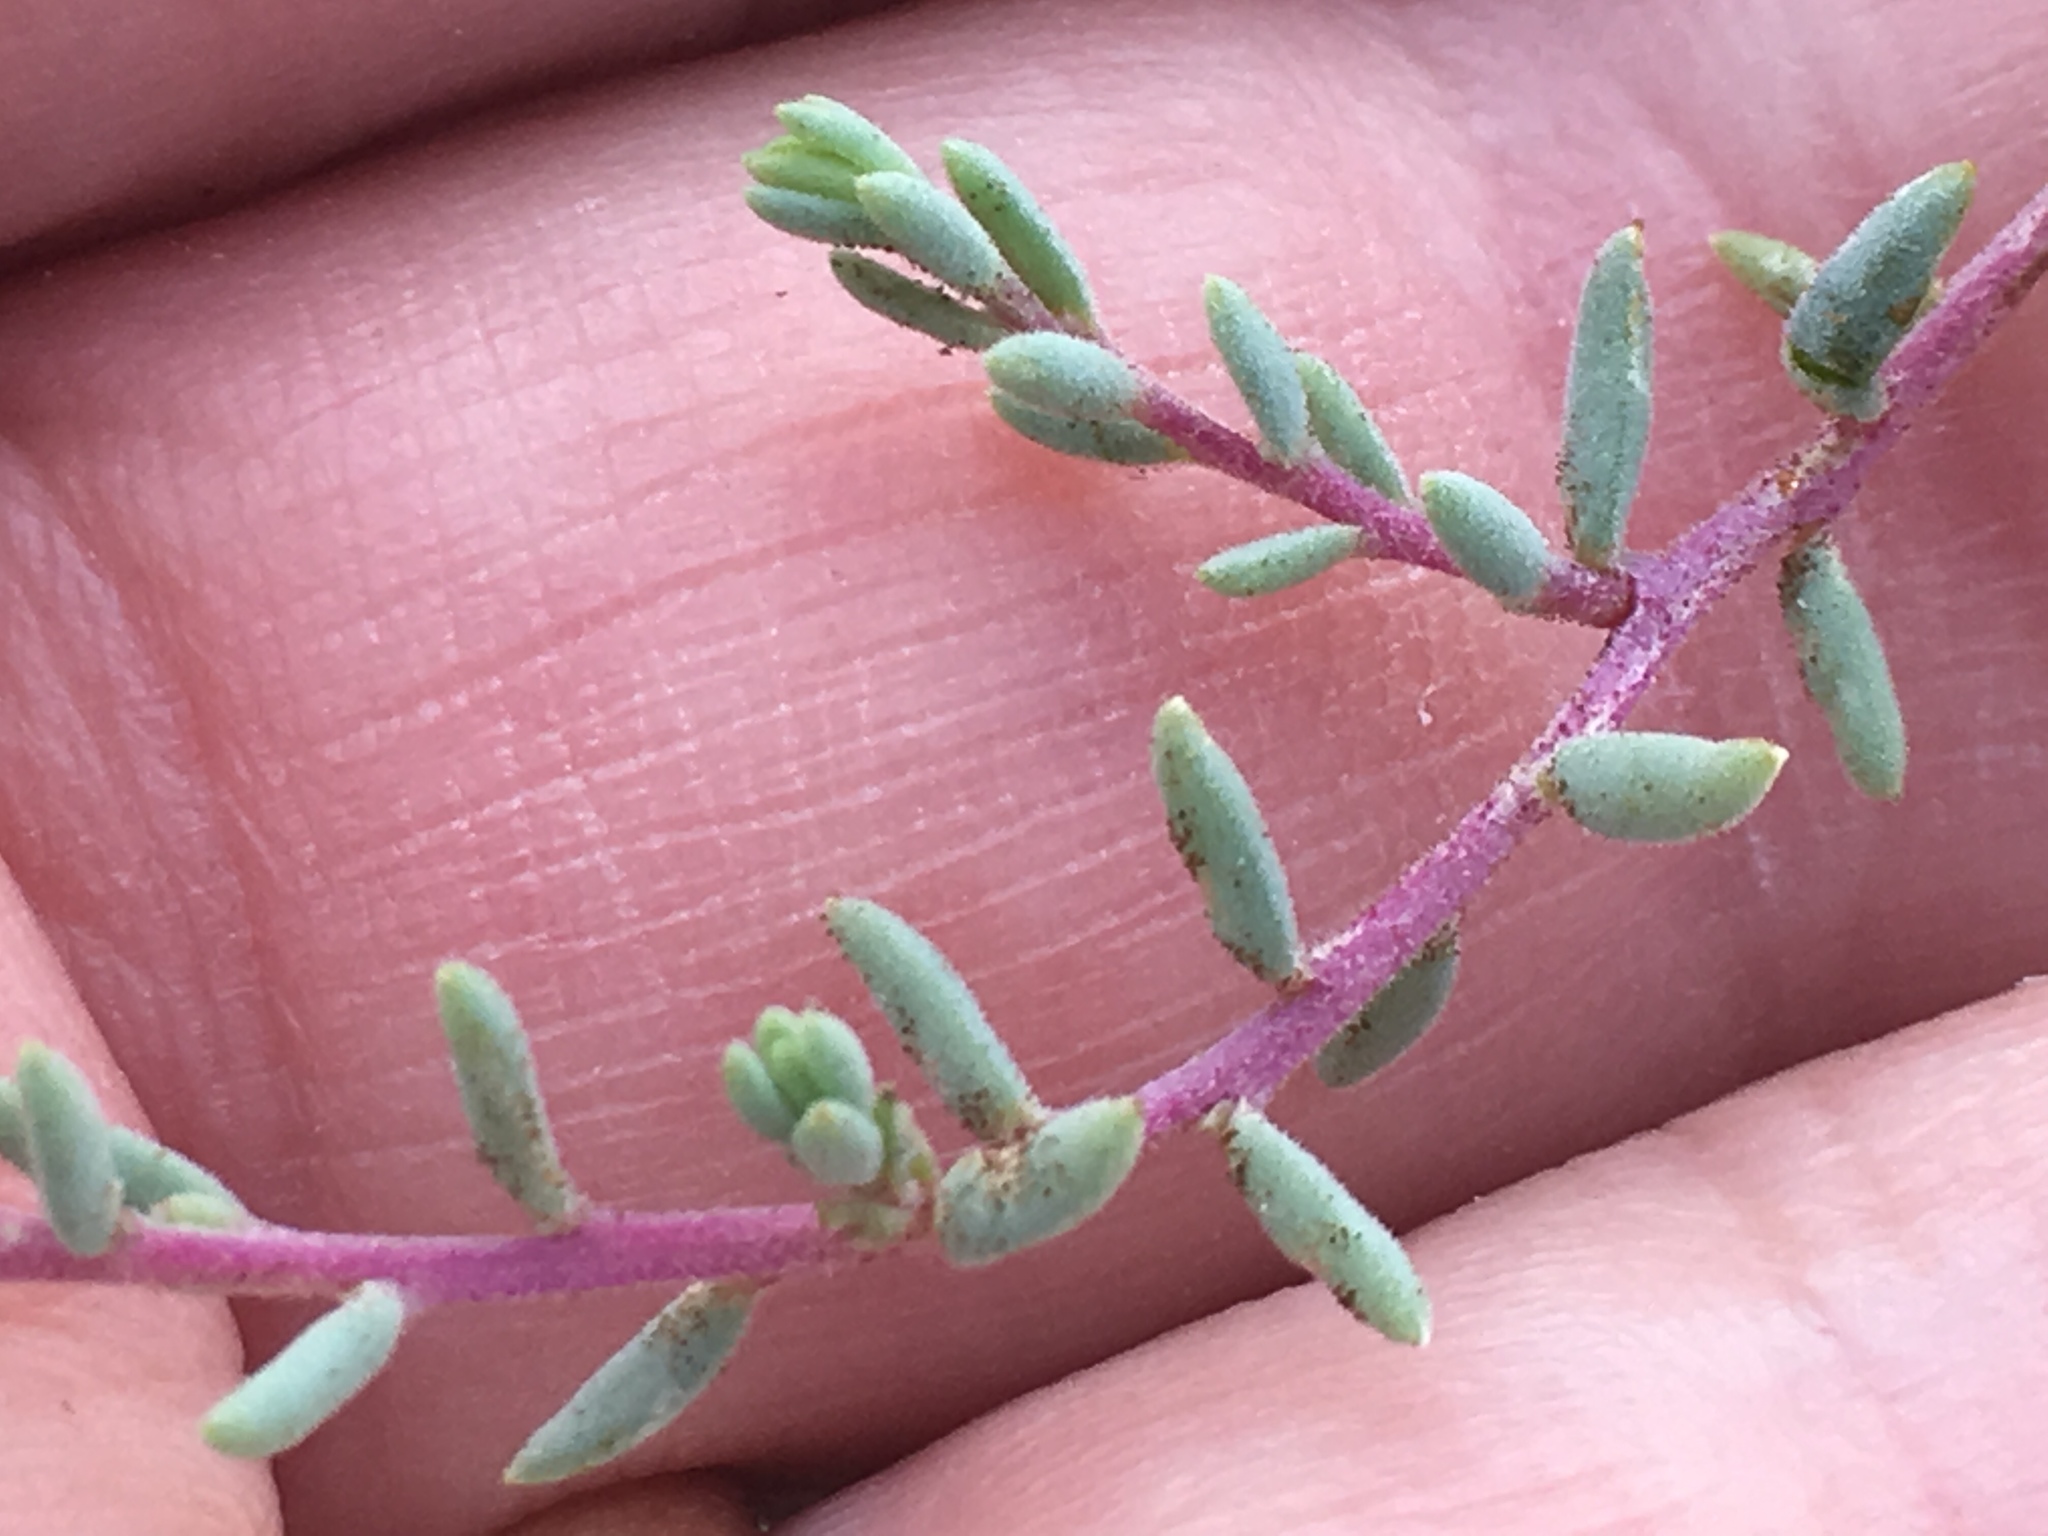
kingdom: Plantae
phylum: Tracheophyta
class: Magnoliopsida
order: Caryophyllales
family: Amaranthaceae
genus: Suaeda
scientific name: Suaeda nigra
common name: Bush seepweed
